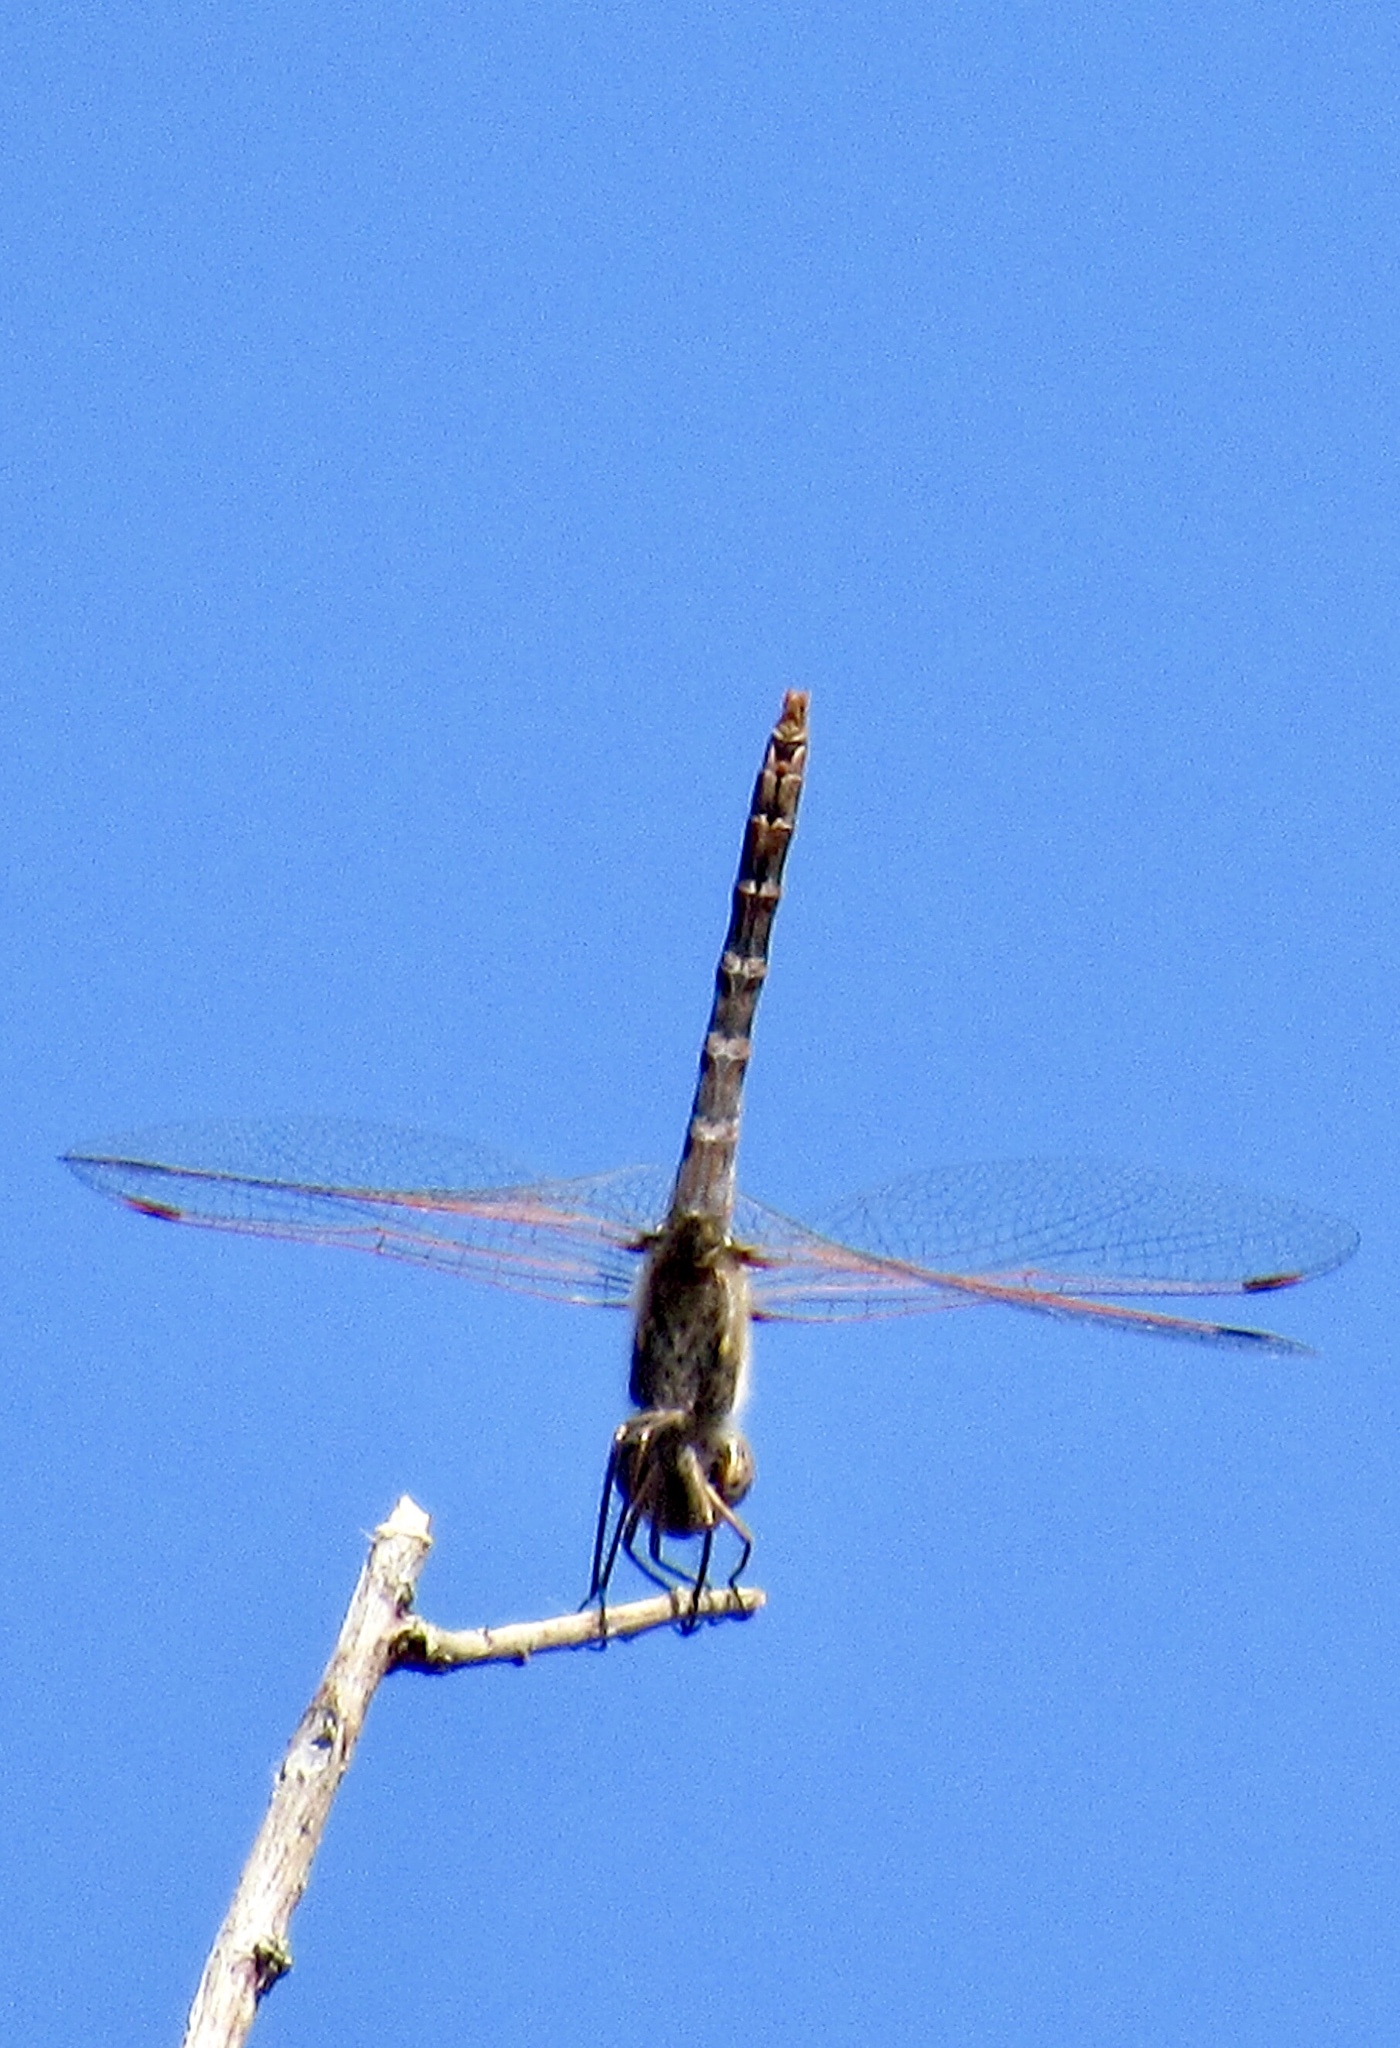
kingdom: Animalia
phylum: Arthropoda
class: Insecta
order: Odonata
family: Libellulidae
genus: Sympetrum
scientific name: Sympetrum corruptum
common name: Variegated meadowhawk
